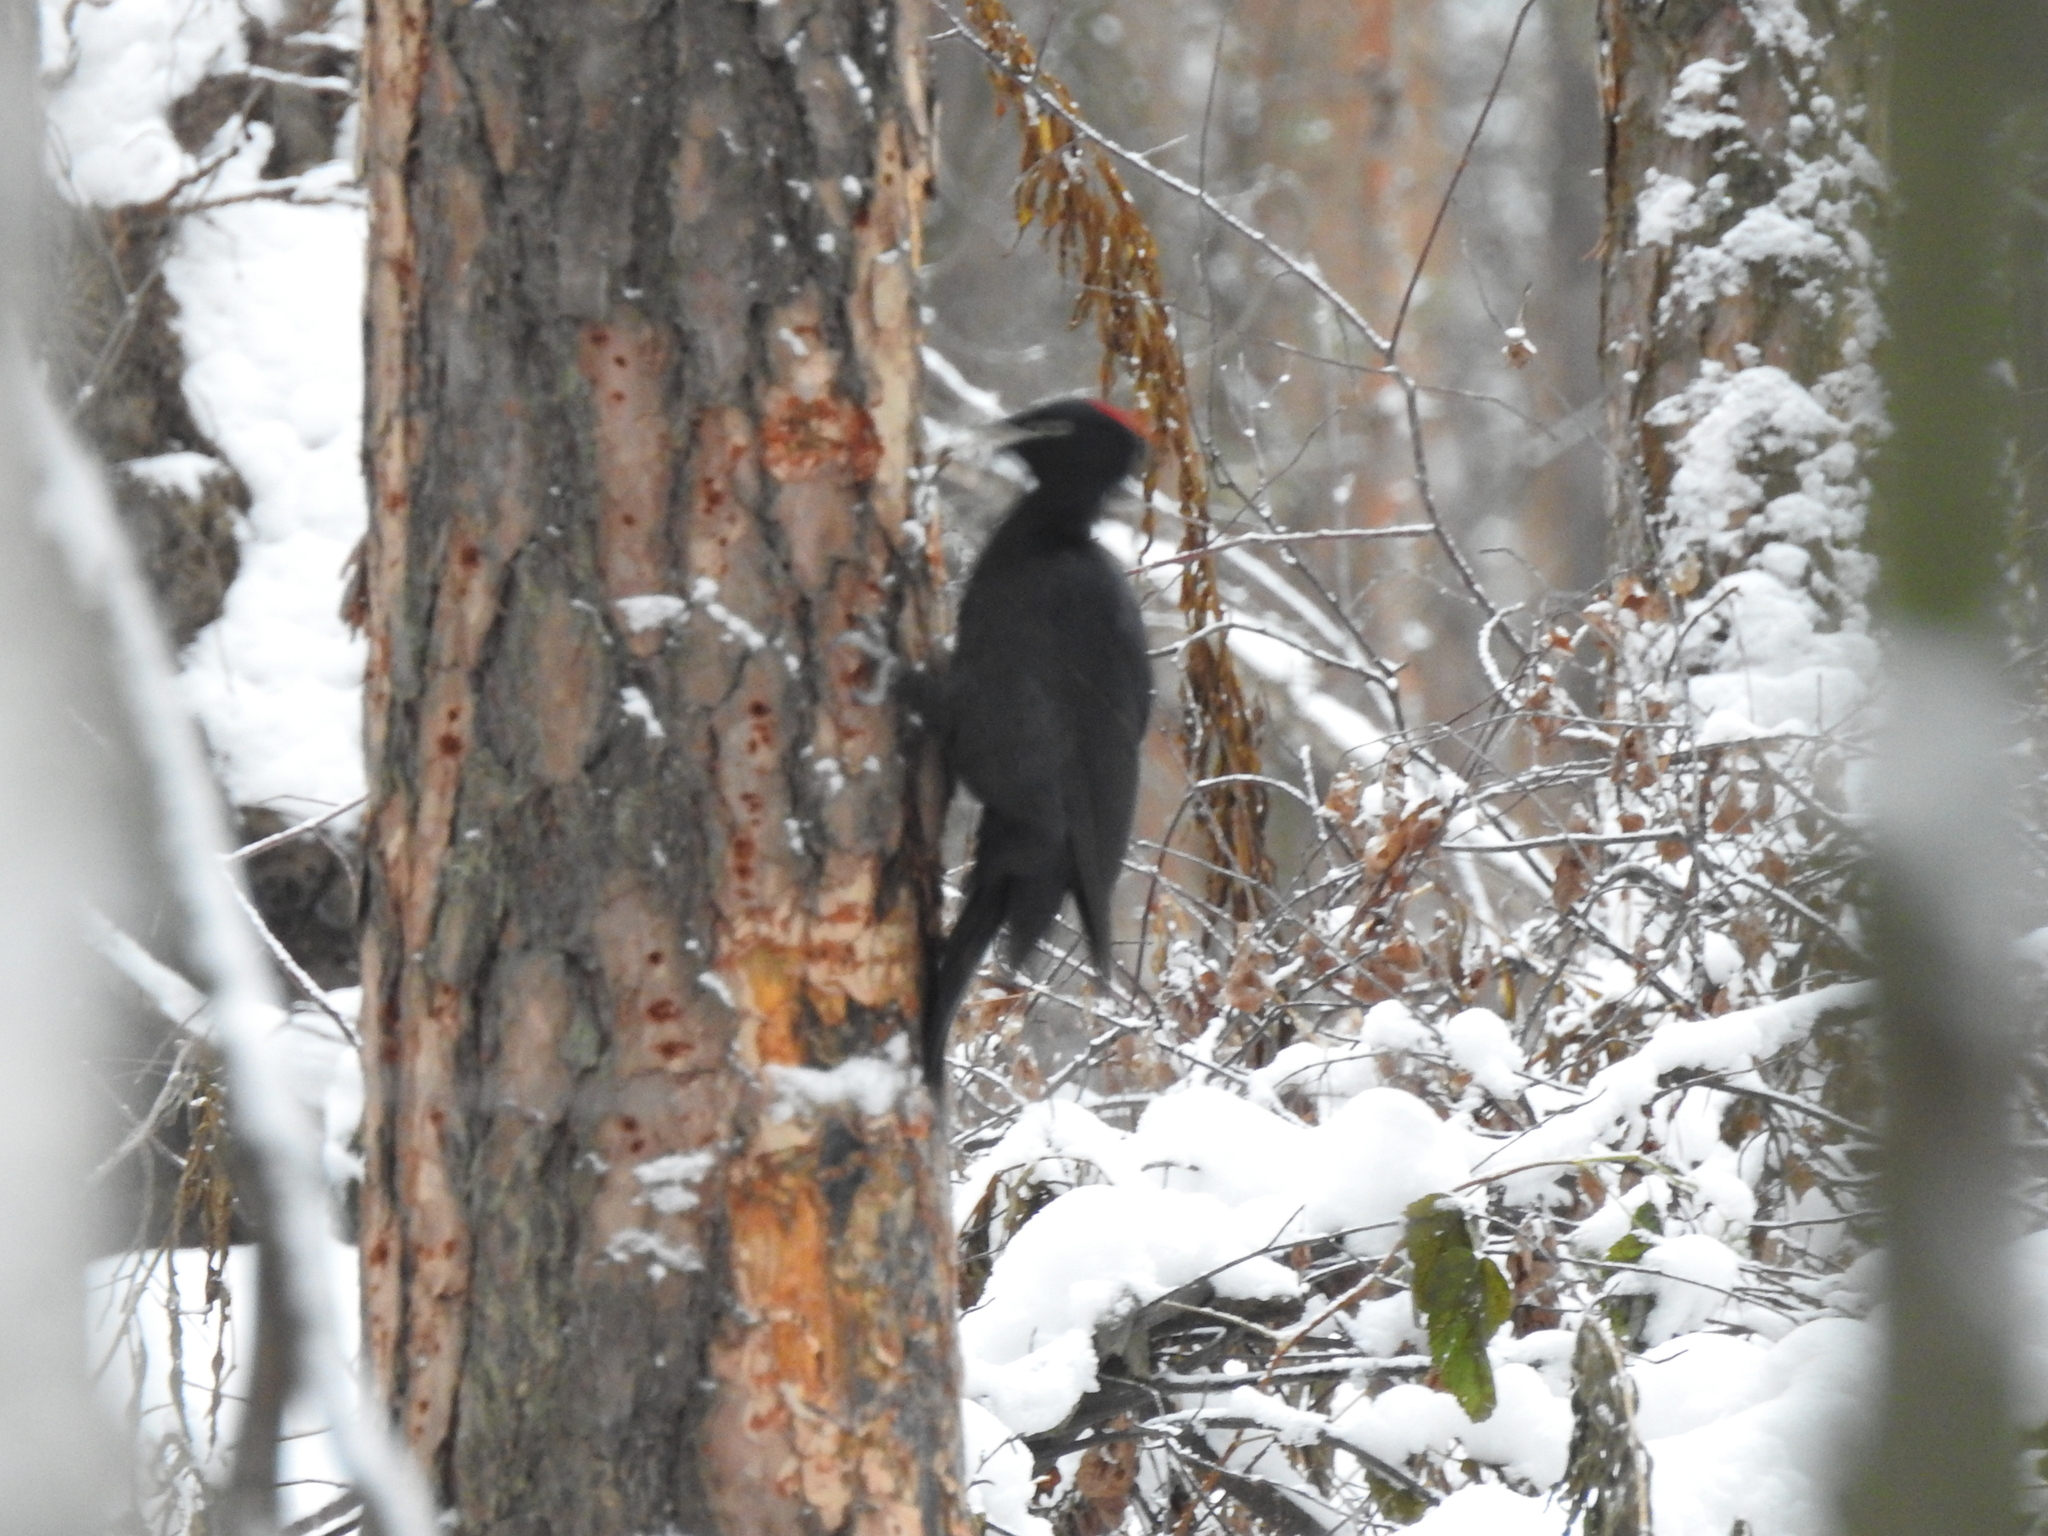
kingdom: Animalia
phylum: Chordata
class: Aves
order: Piciformes
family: Picidae
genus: Dryocopus
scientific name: Dryocopus martius
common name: Black woodpecker
